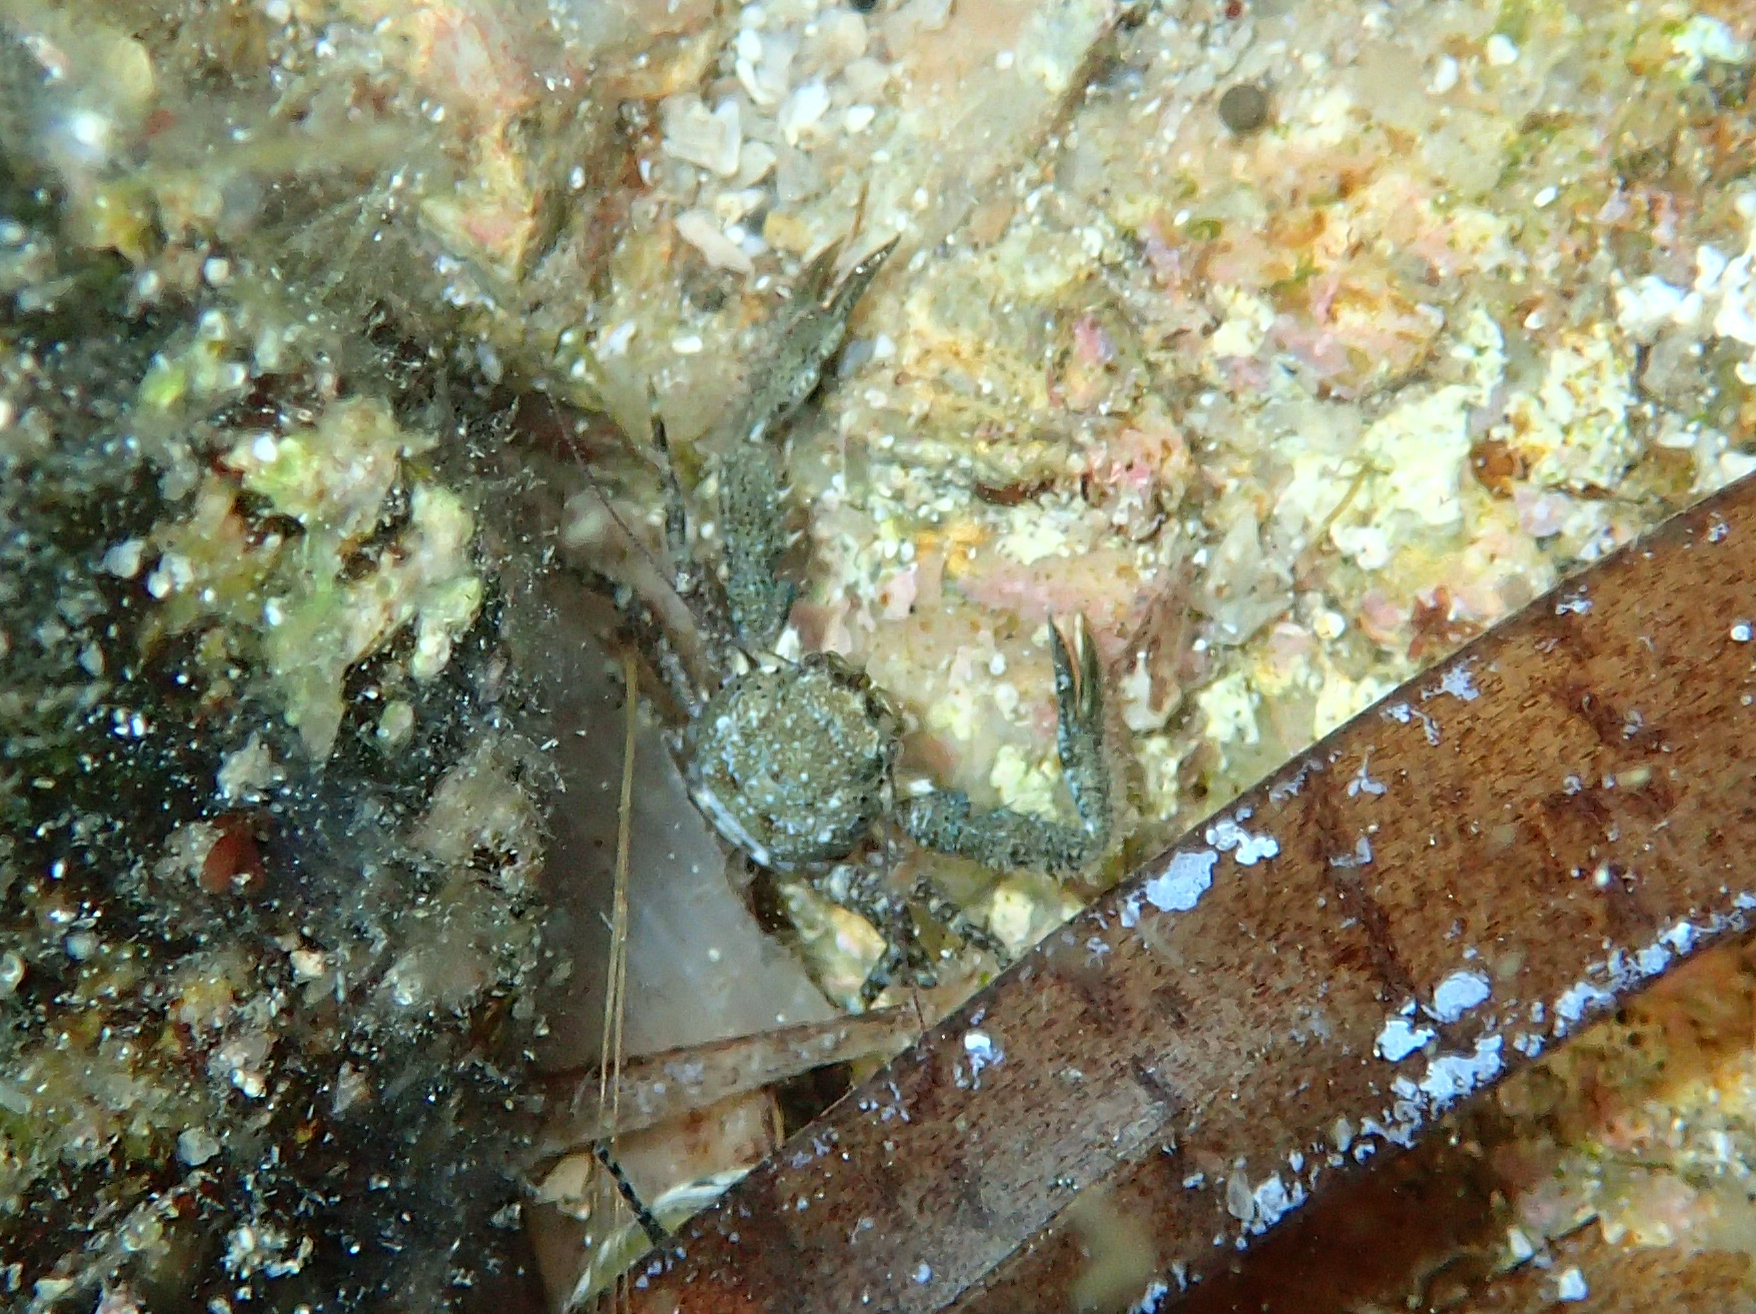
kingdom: Animalia
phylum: Arthropoda
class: Malacostraca
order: Decapoda
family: Porcellanidae
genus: Pisidia
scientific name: Pisidia bluteli
